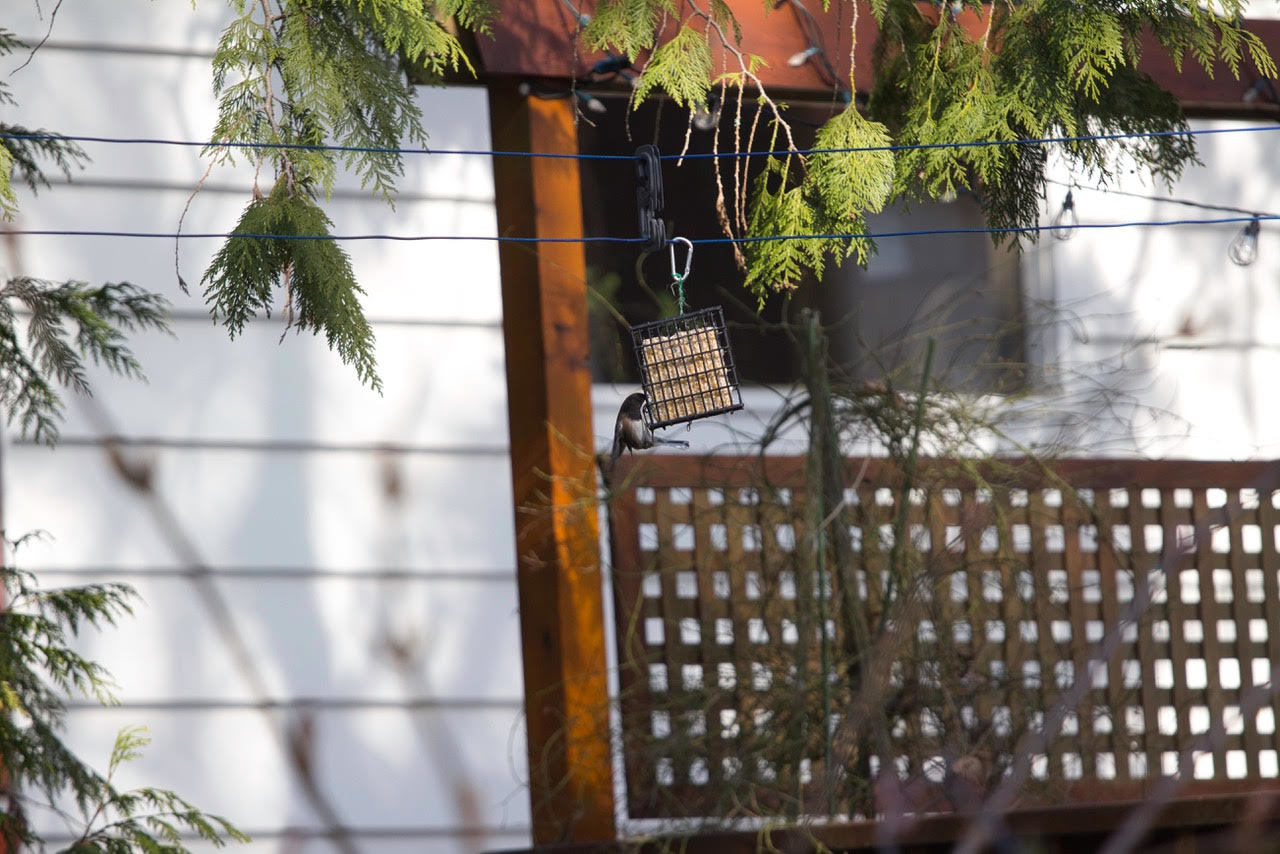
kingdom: Animalia
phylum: Chordata
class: Aves
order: Passeriformes
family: Passerellidae
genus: Junco
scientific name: Junco hyemalis
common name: Dark-eyed junco
